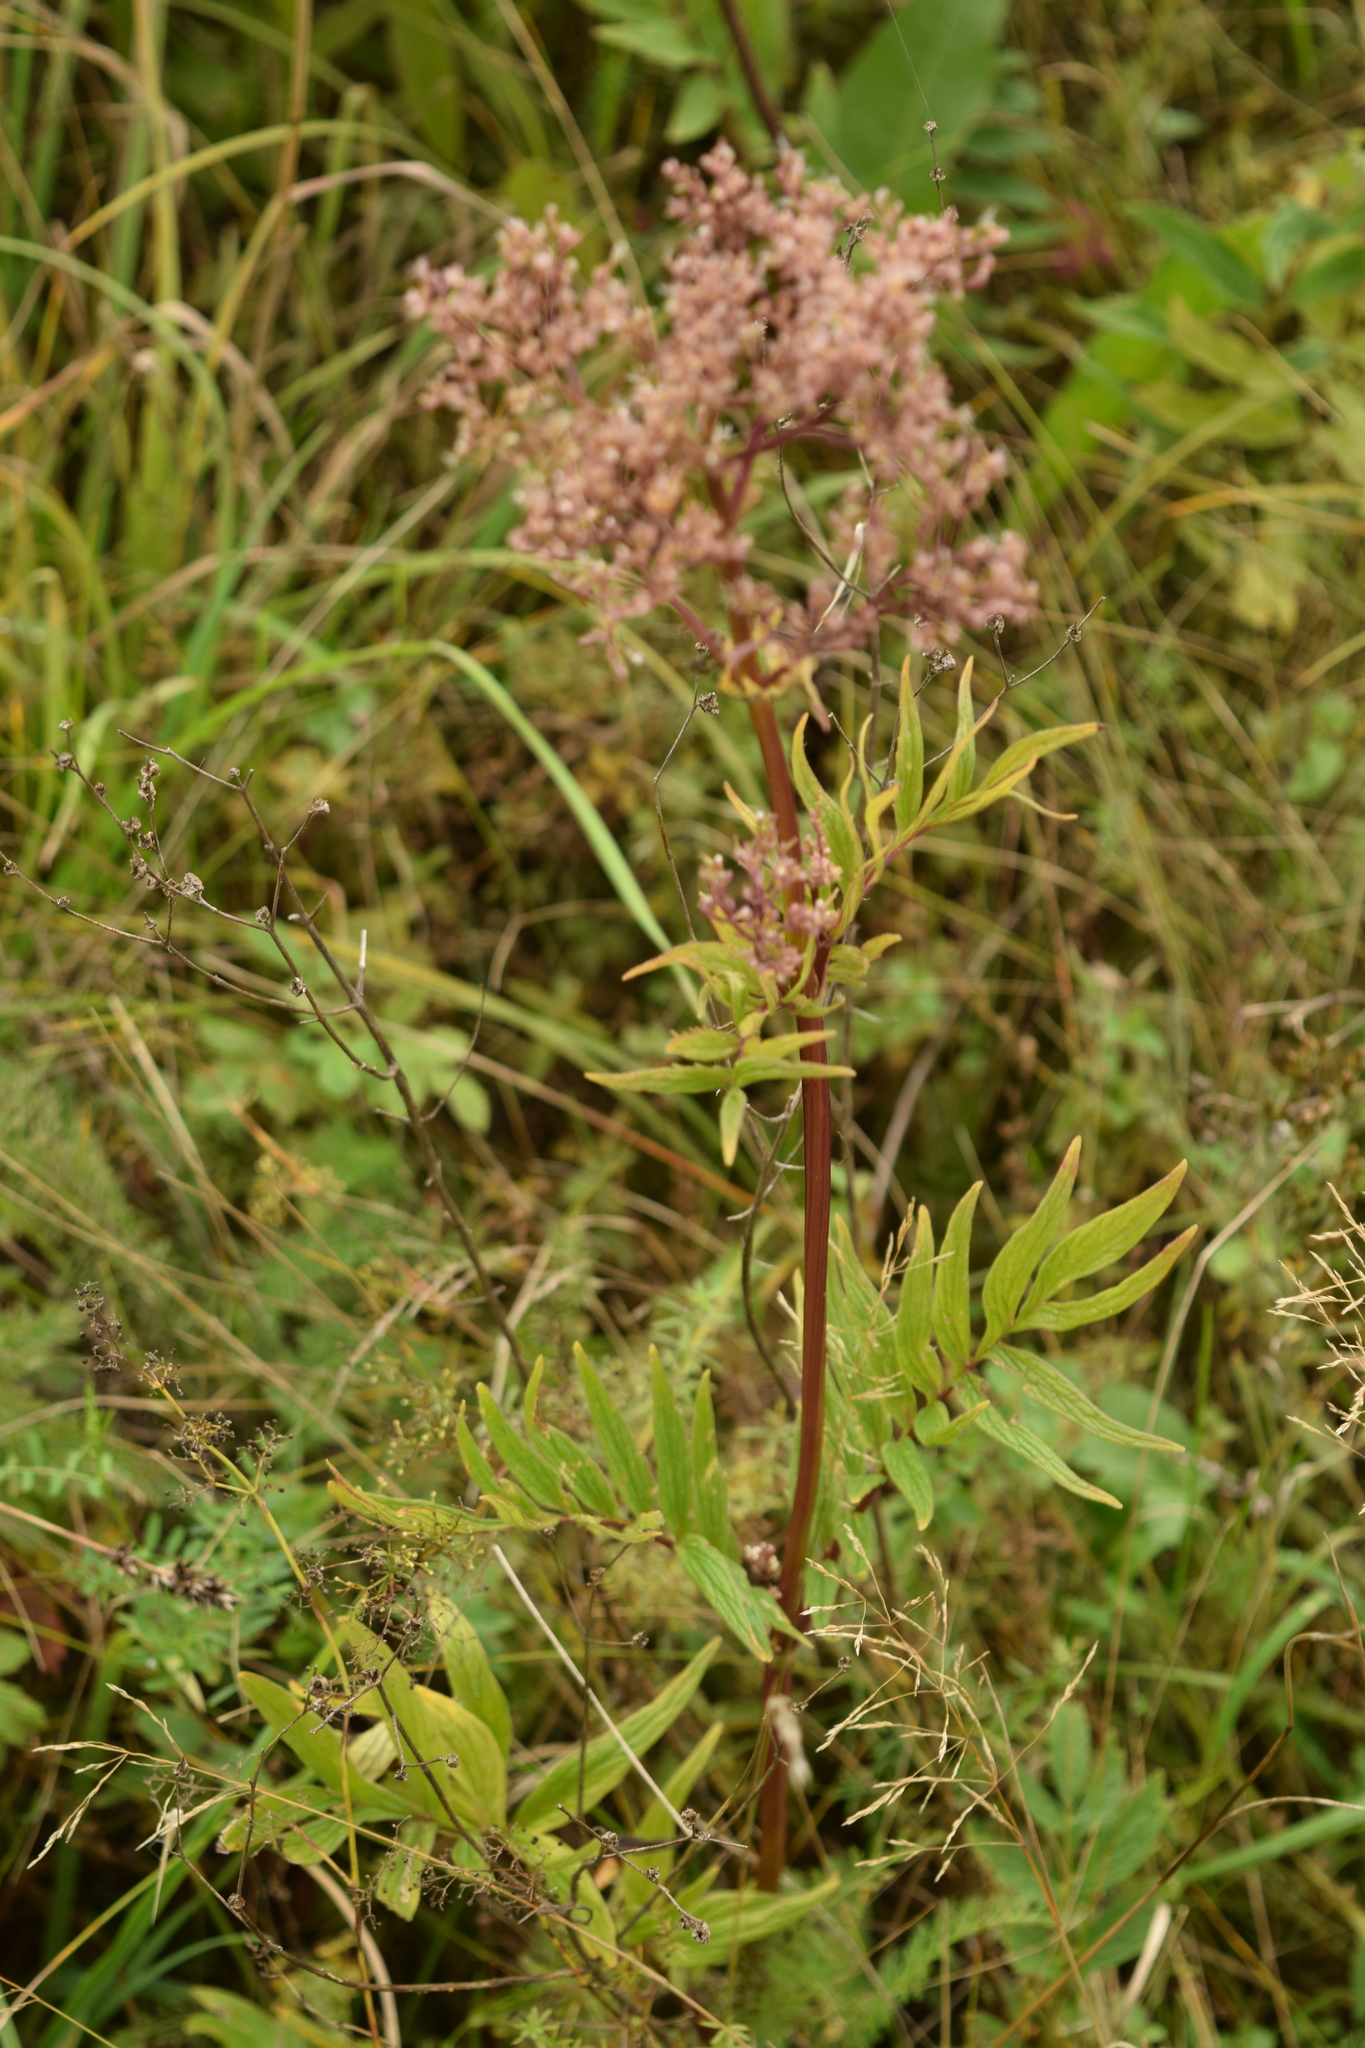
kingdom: Plantae
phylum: Tracheophyta
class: Magnoliopsida
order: Dipsacales
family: Caprifoliaceae
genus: Valeriana
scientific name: Valeriana officinalis
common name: Common valerian
